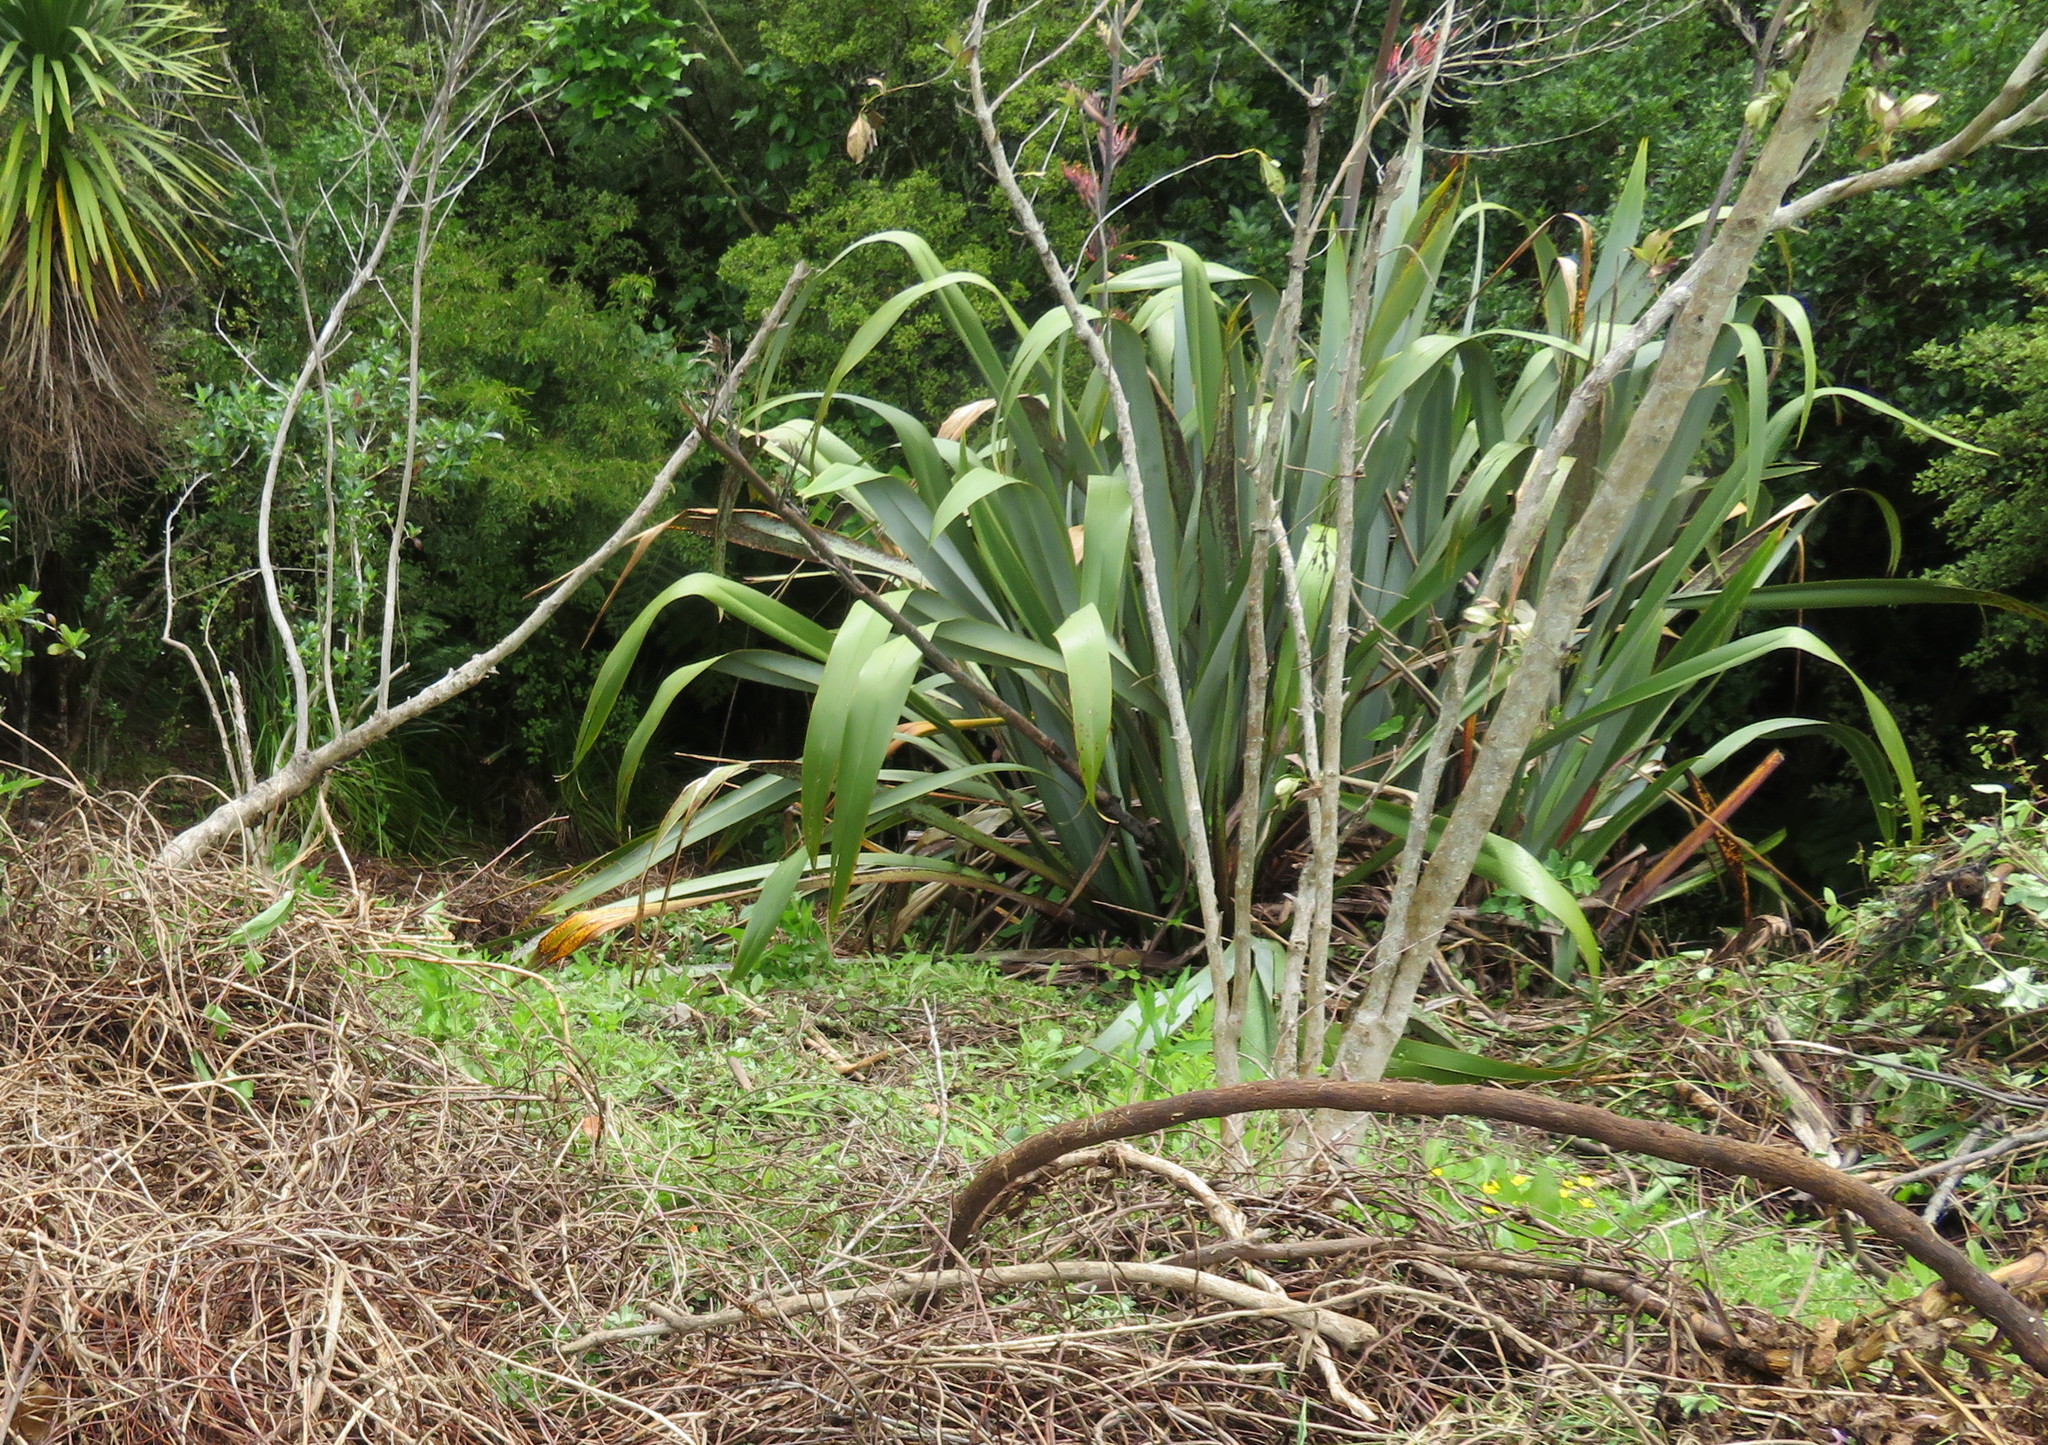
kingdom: Plantae
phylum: Tracheophyta
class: Liliopsida
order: Asparagales
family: Asphodelaceae
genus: Phormium
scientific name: Phormium tenax
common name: New zealand flax
